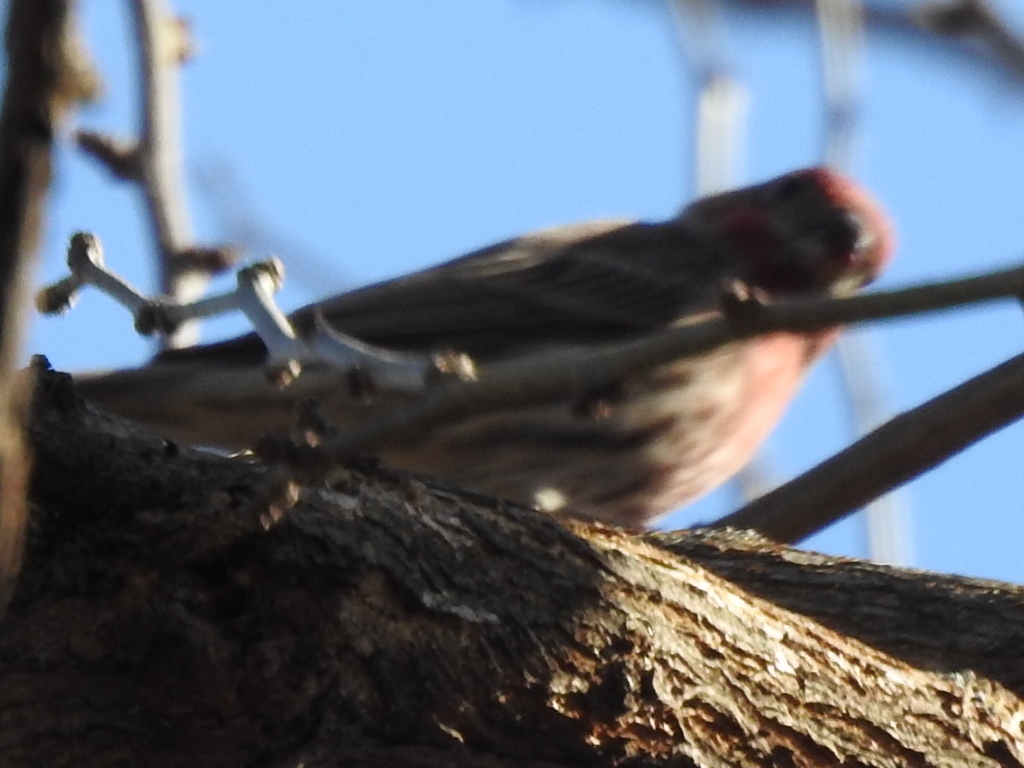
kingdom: Animalia
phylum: Chordata
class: Aves
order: Passeriformes
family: Fringillidae
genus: Haemorhous
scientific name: Haemorhous mexicanus
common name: House finch
